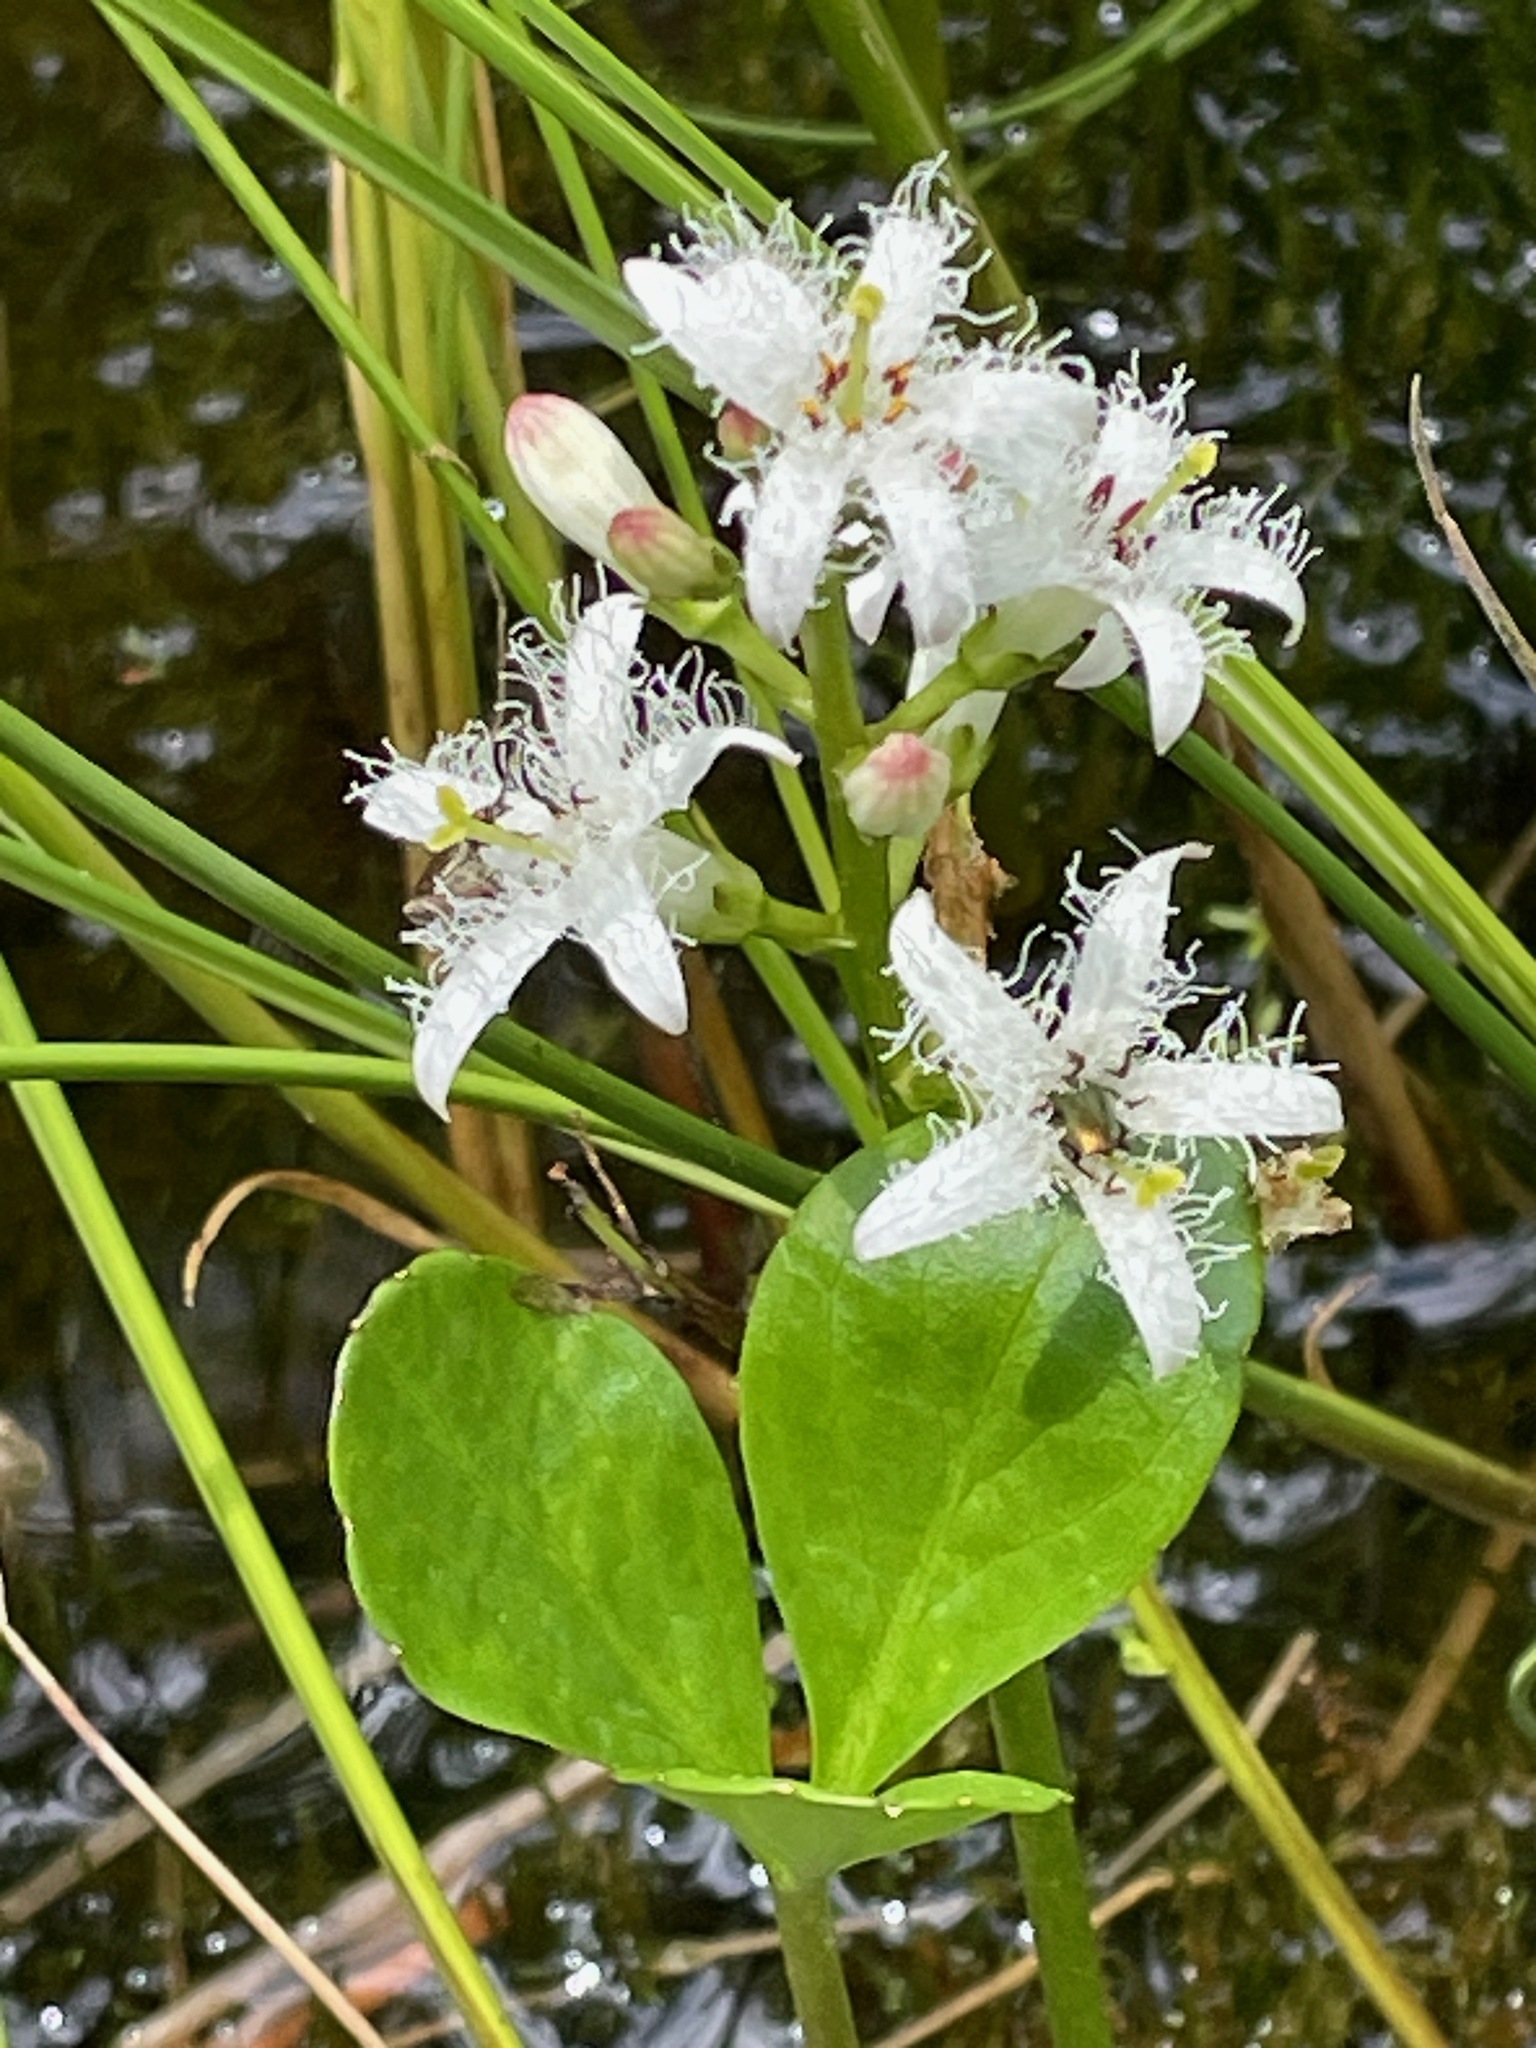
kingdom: Plantae
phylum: Tracheophyta
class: Magnoliopsida
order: Asterales
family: Menyanthaceae
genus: Menyanthes
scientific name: Menyanthes trifoliata
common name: Bogbean
